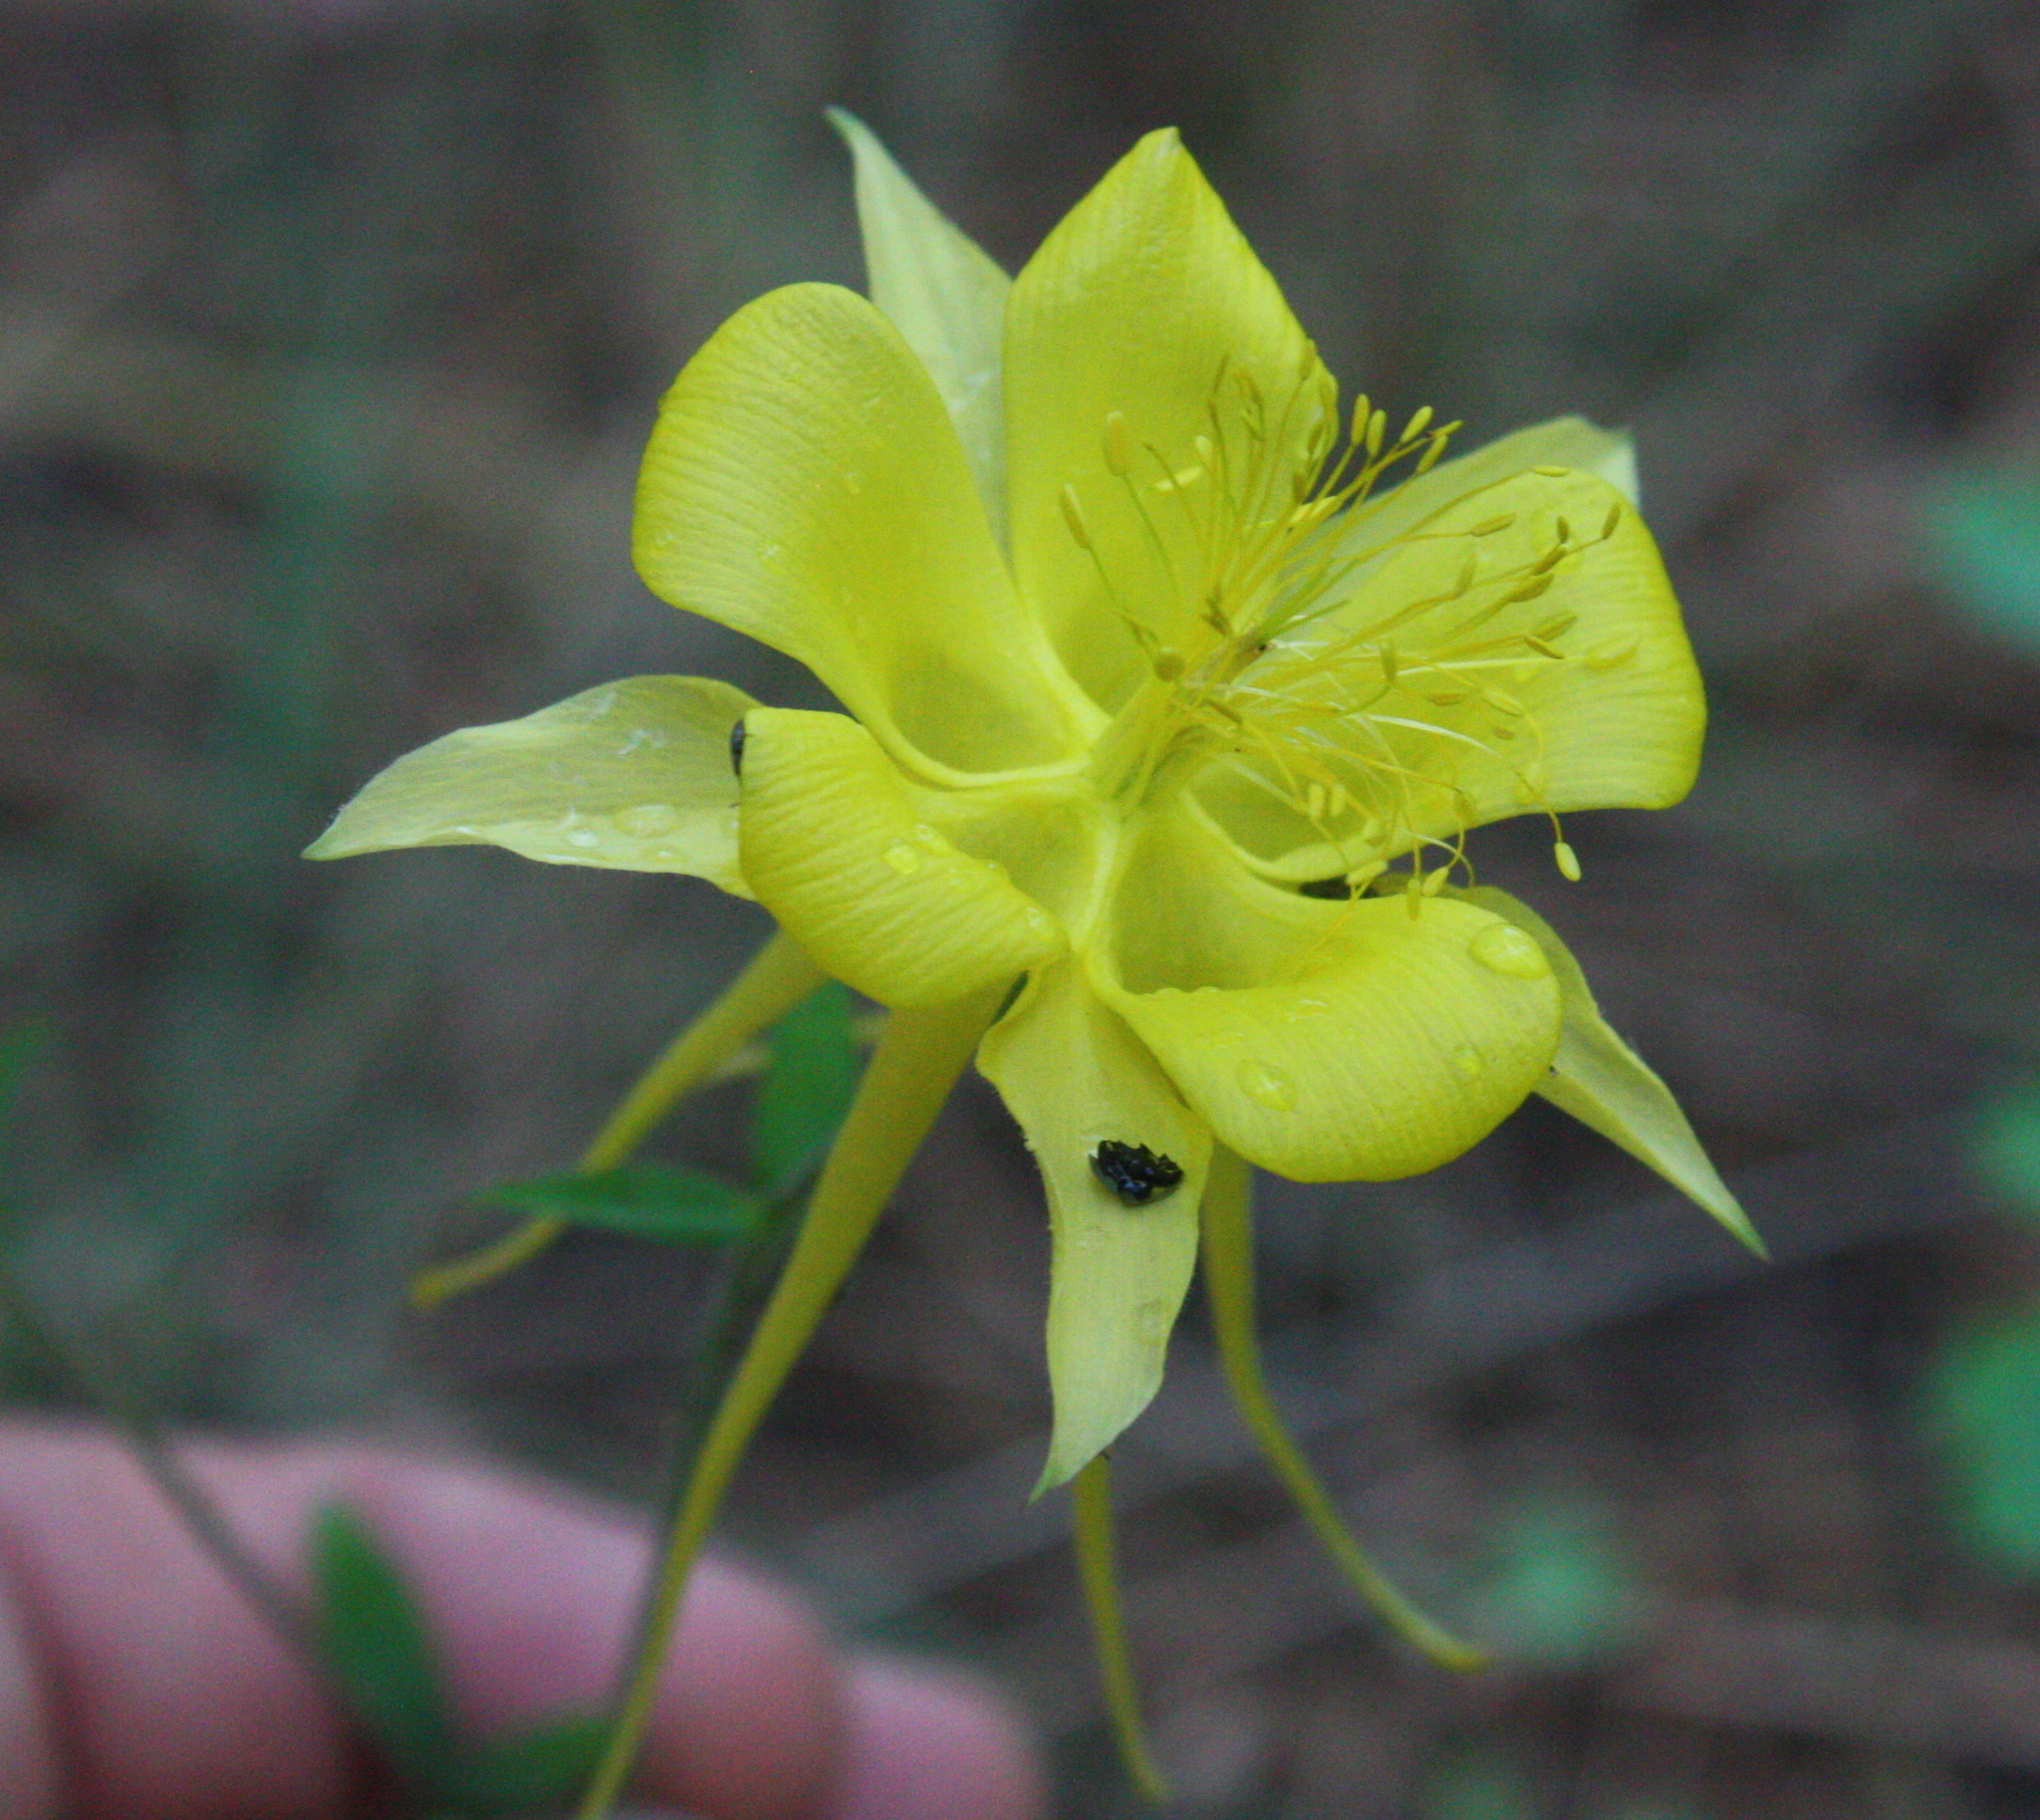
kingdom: Plantae
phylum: Tracheophyta
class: Magnoliopsida
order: Ranunculales
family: Ranunculaceae
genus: Aquilegia
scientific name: Aquilegia chrysantha
